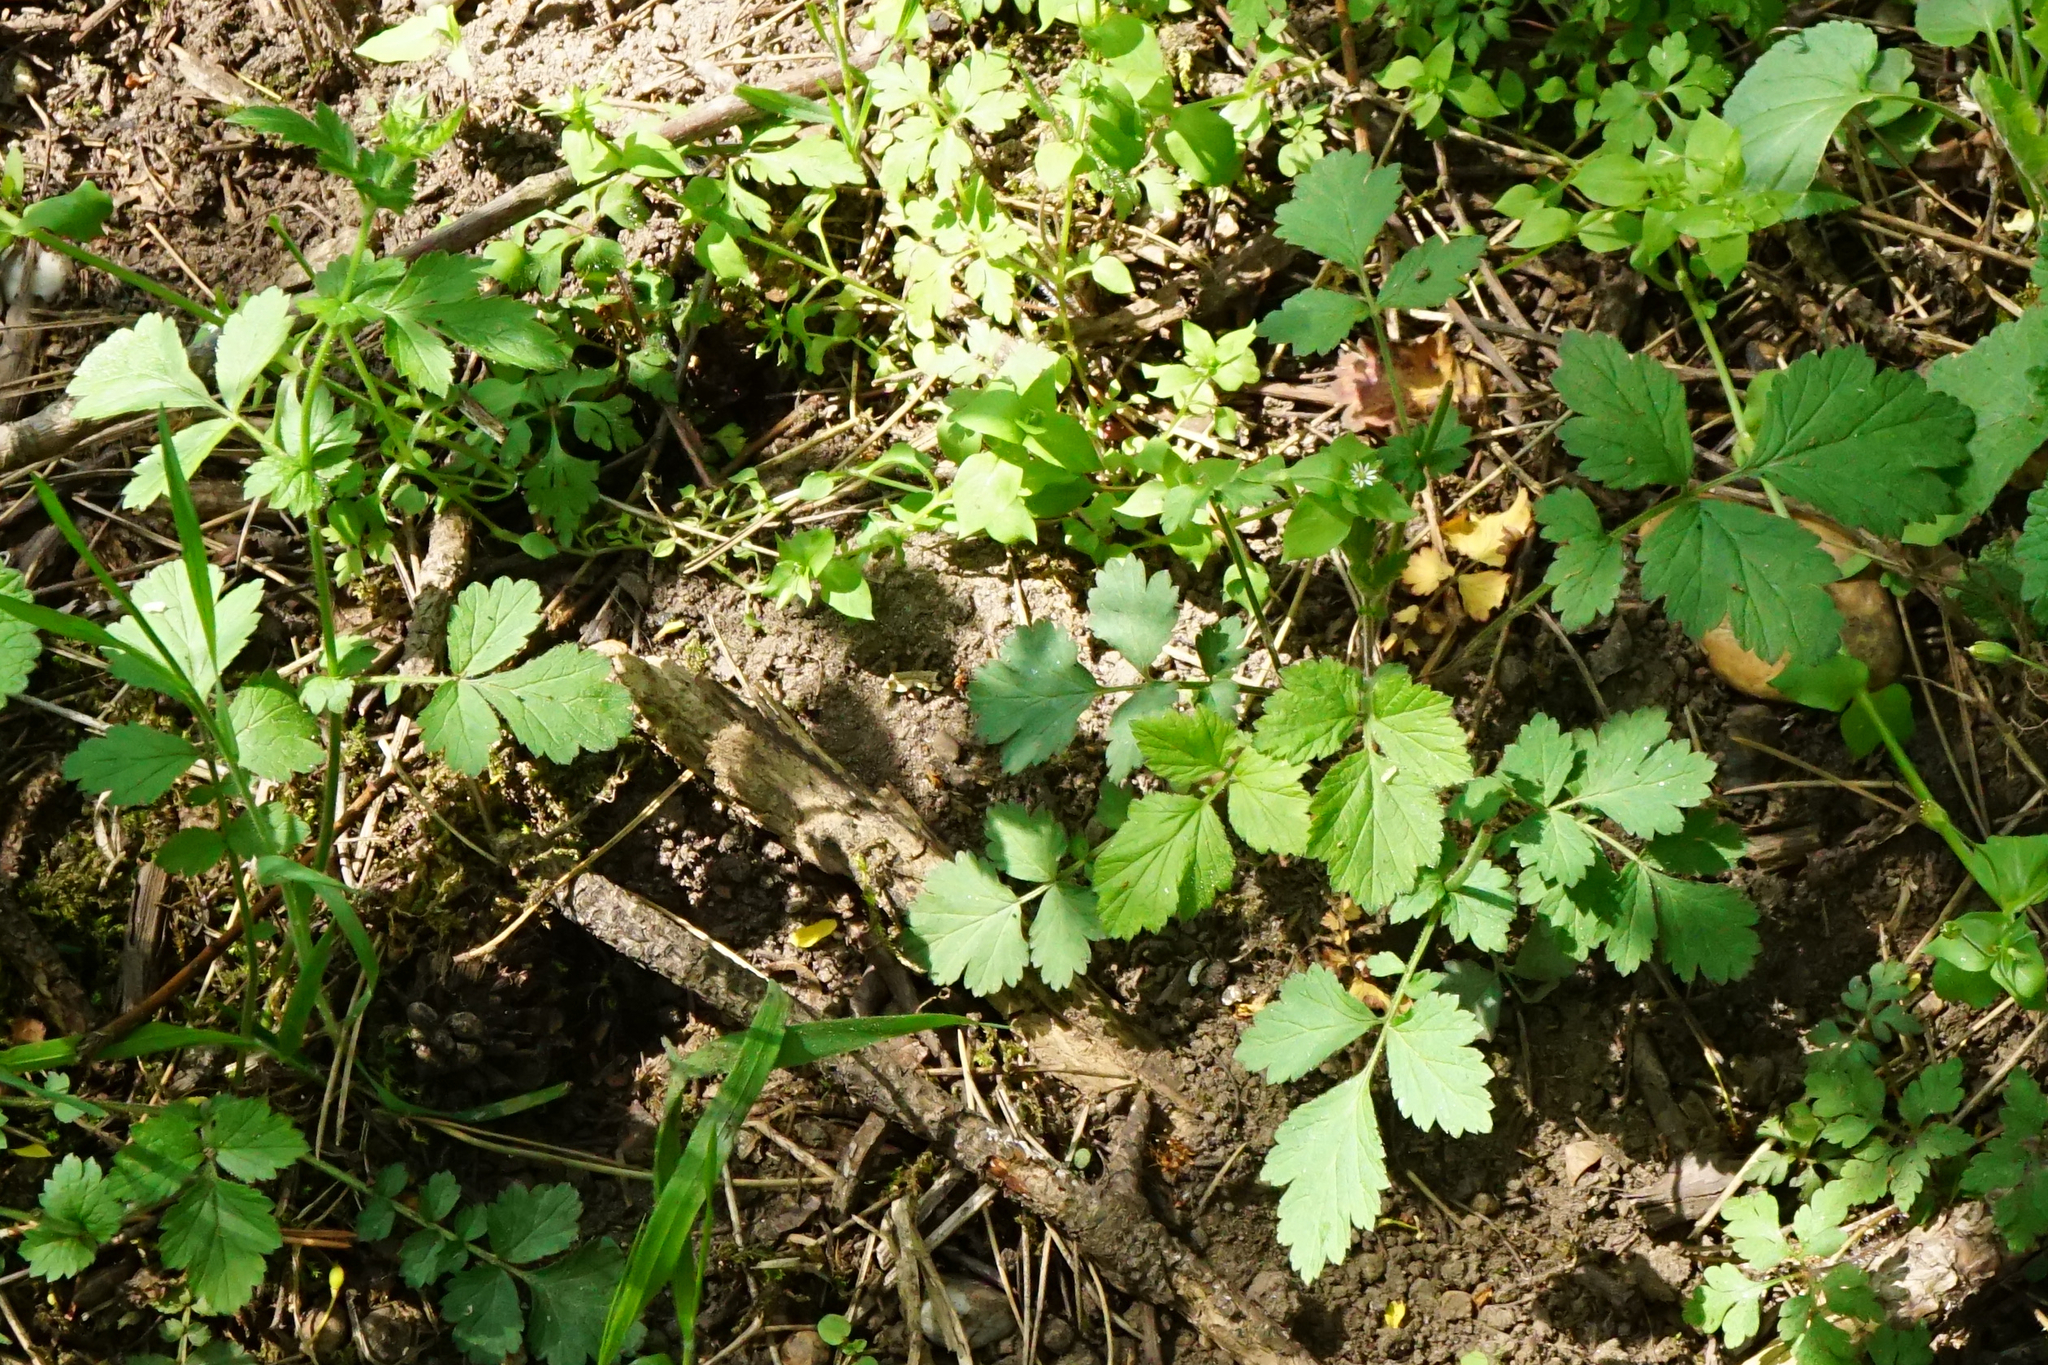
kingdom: Plantae
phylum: Tracheophyta
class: Magnoliopsida
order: Rosales
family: Rosaceae
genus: Geum
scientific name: Geum urbanum
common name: Wood avens
